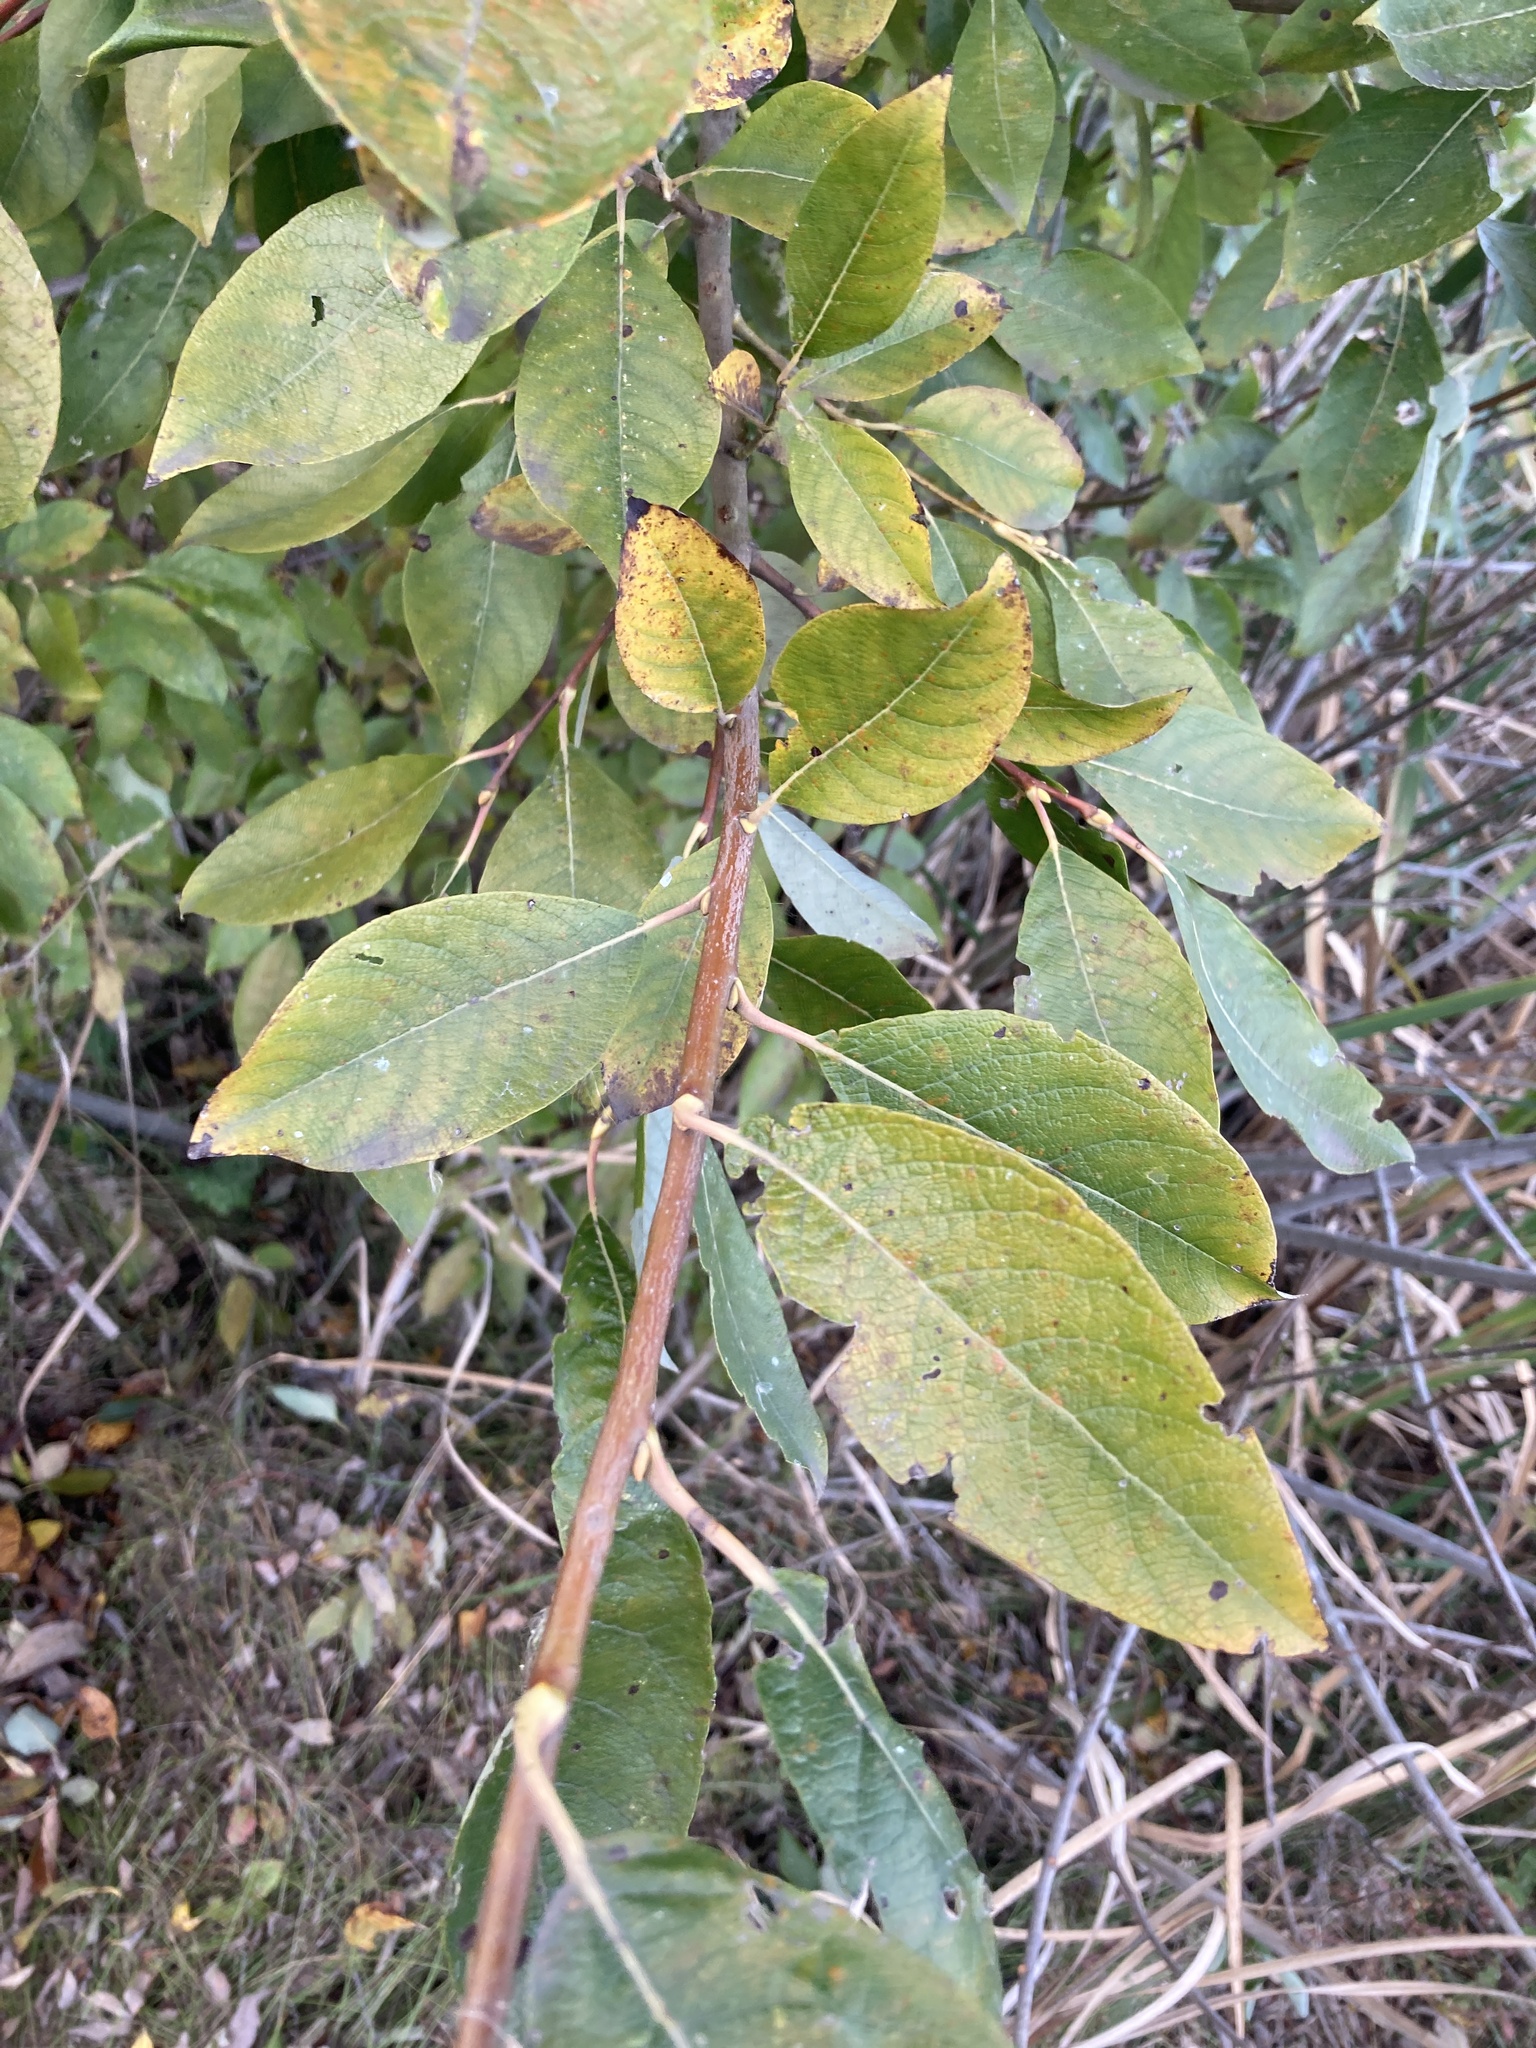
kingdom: Plantae
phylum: Tracheophyta
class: Magnoliopsida
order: Malpighiales
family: Salicaceae
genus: Salix
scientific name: Salix caprea
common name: Goat willow
